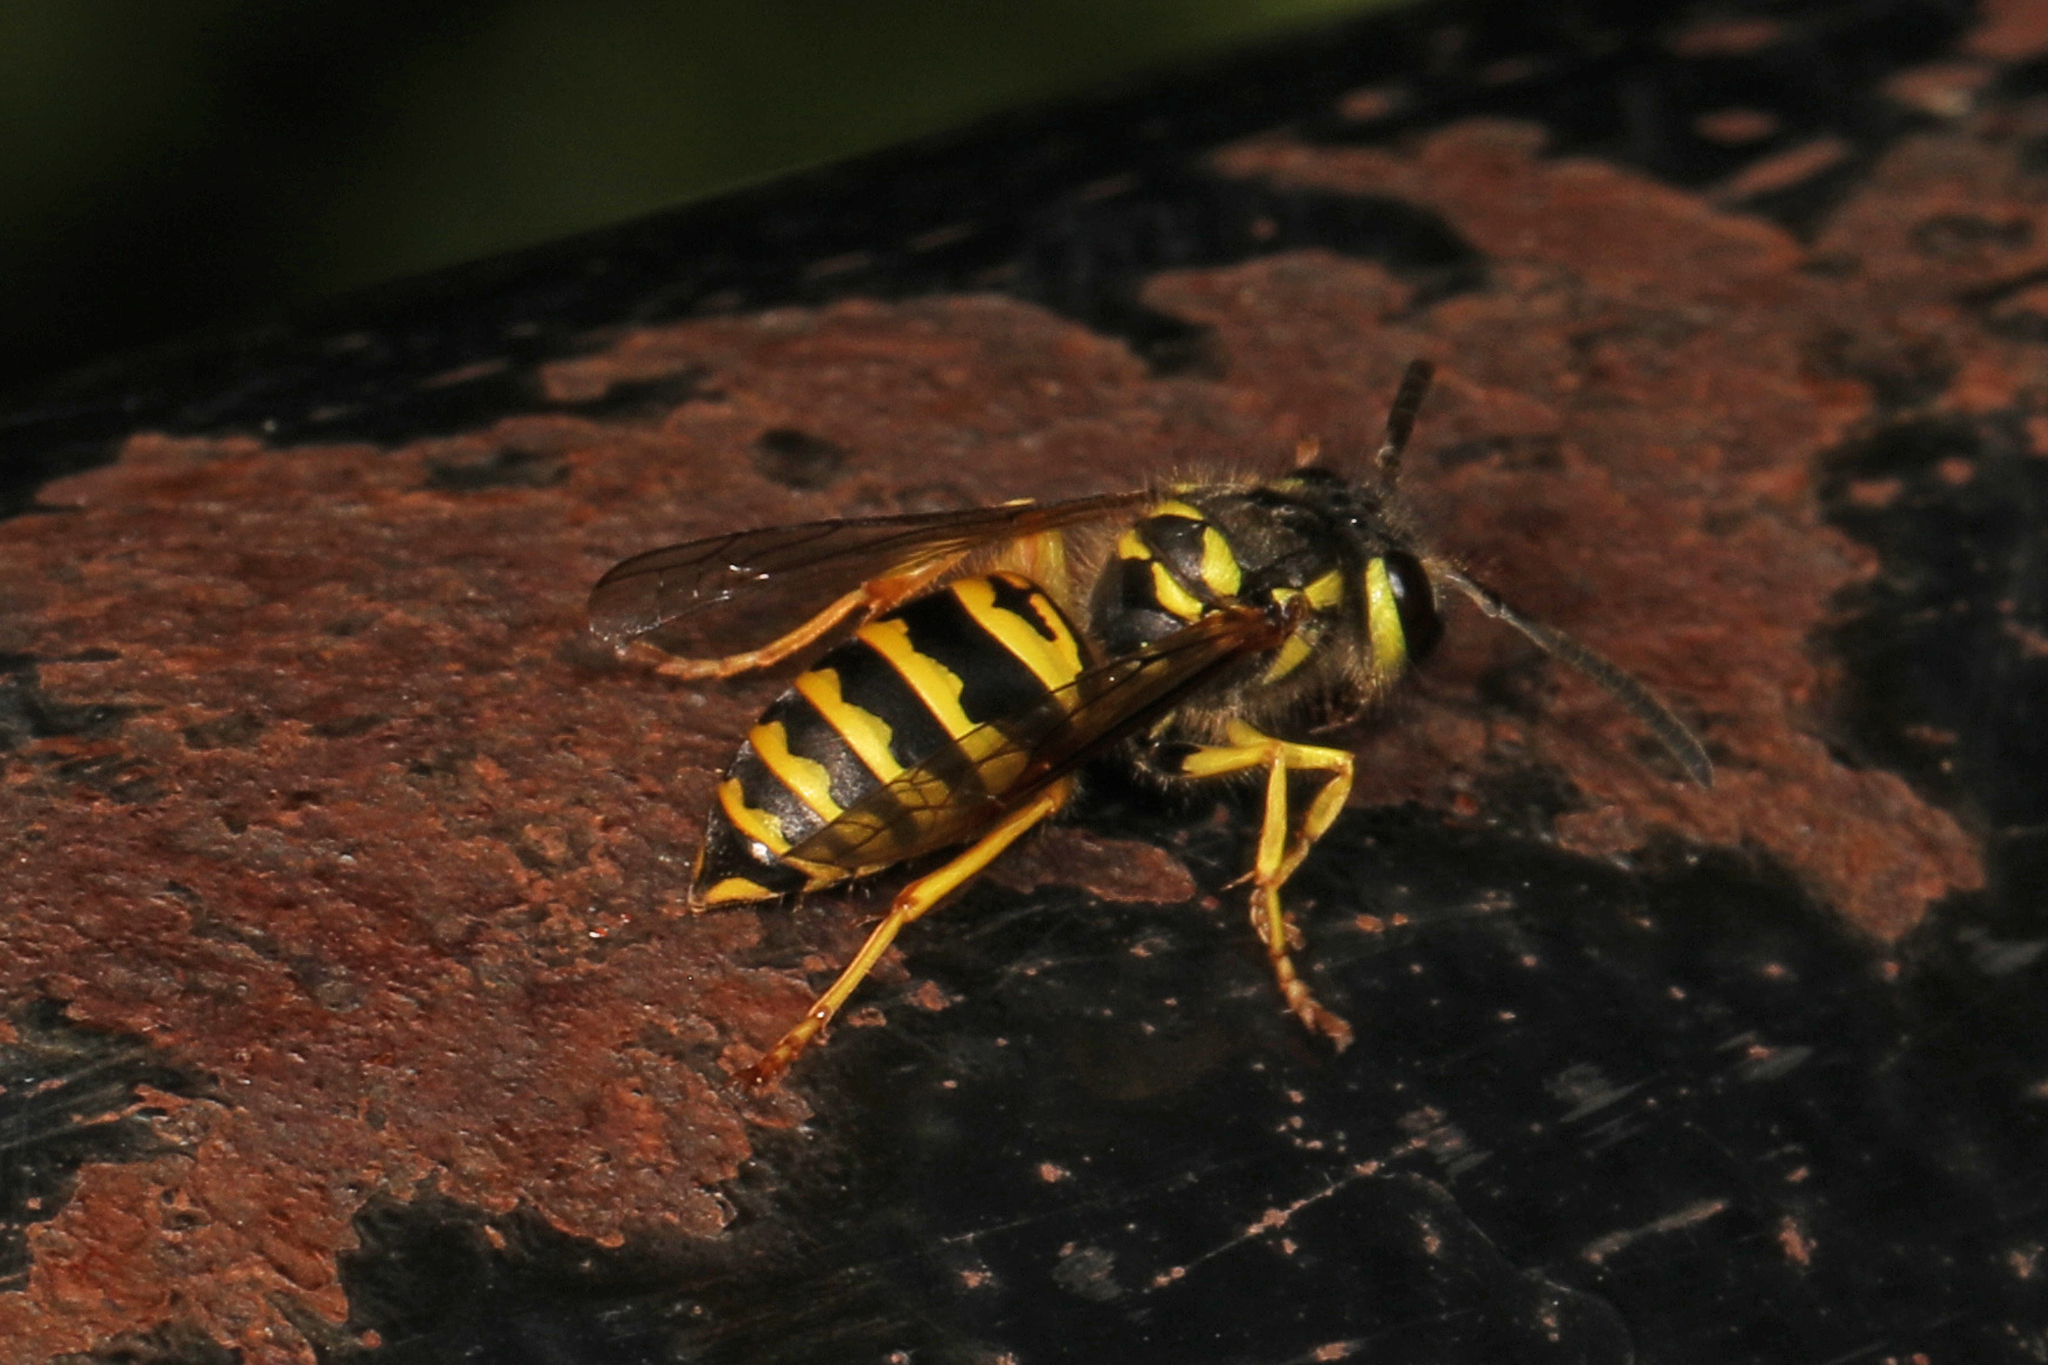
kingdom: Animalia
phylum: Arthropoda
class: Insecta
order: Hymenoptera
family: Vespidae
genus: Vespula
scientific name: Vespula maculifrons
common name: Eastern yellowjacket
